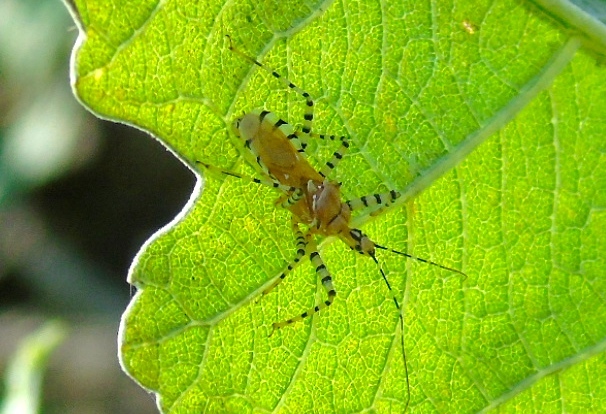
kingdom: Animalia
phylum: Arthropoda
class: Insecta
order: Hemiptera
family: Reduviidae
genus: Pselliopus
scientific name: Pselliopus
